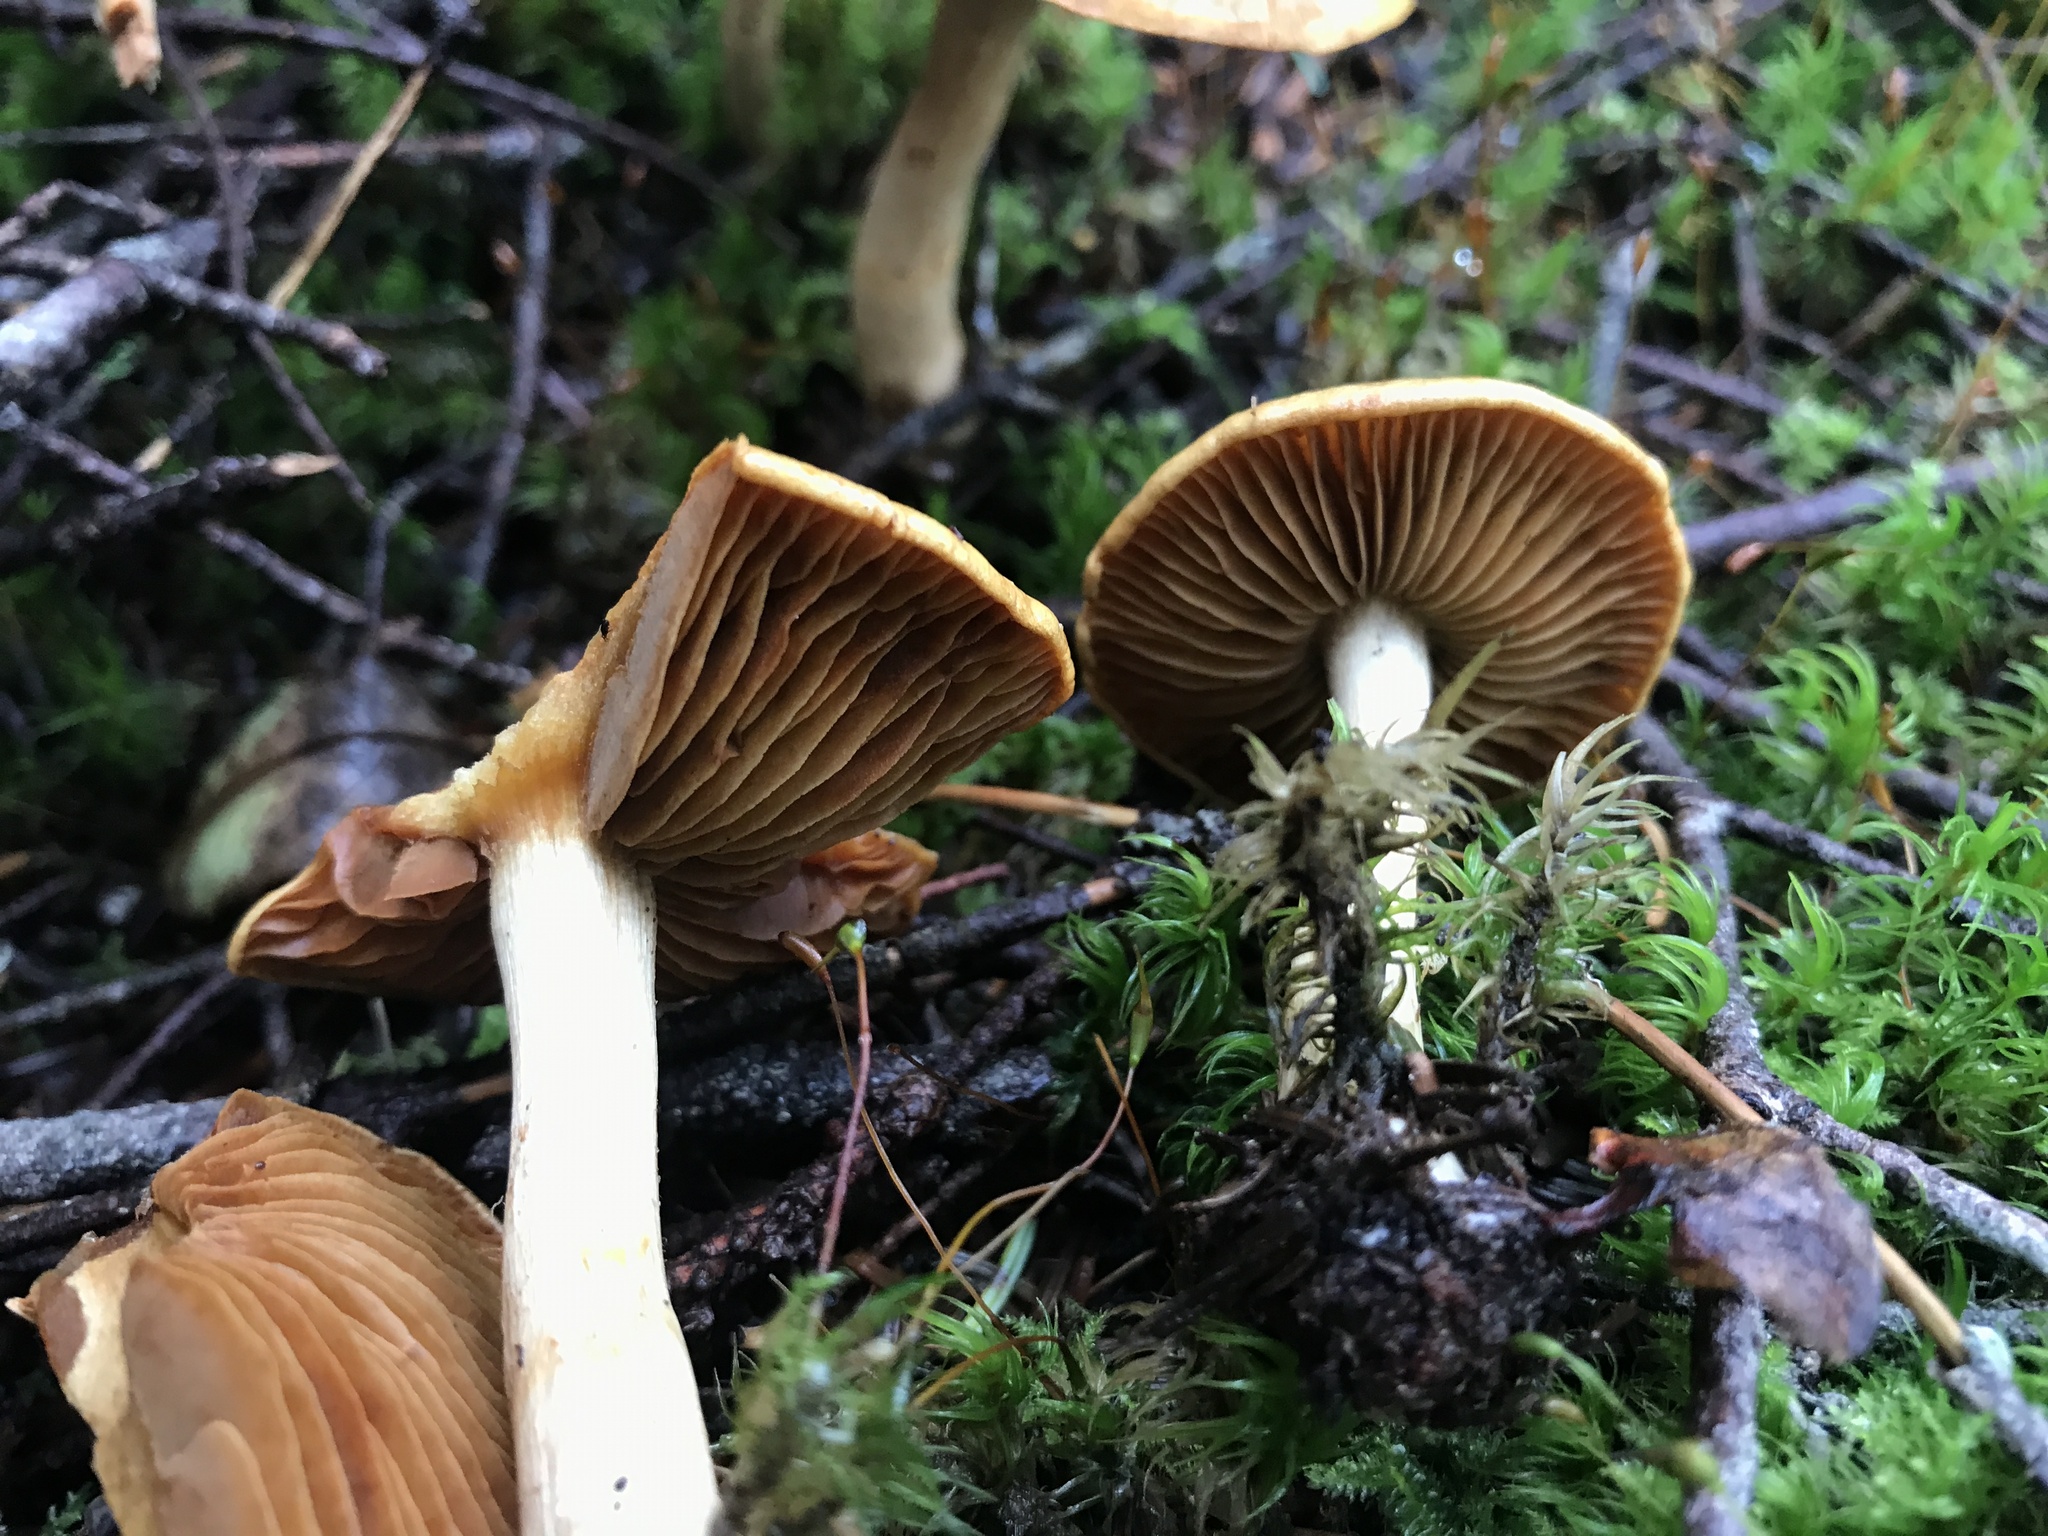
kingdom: Fungi
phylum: Basidiomycota
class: Agaricomycetes
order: Agaricales
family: Cortinariaceae
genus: Cortinarius
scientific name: Cortinarius subtortus
